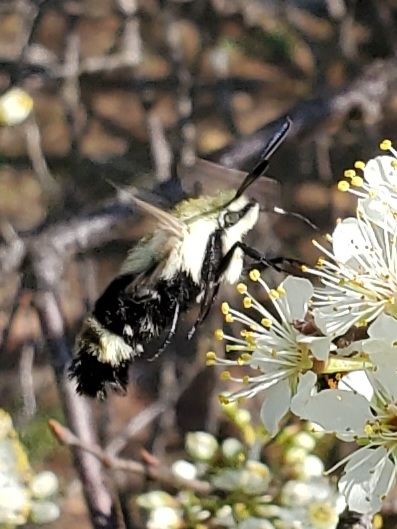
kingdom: Animalia
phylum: Arthropoda
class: Insecta
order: Lepidoptera
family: Sphingidae
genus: Hemaris
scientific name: Hemaris diffinis
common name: Bumblebee moth
